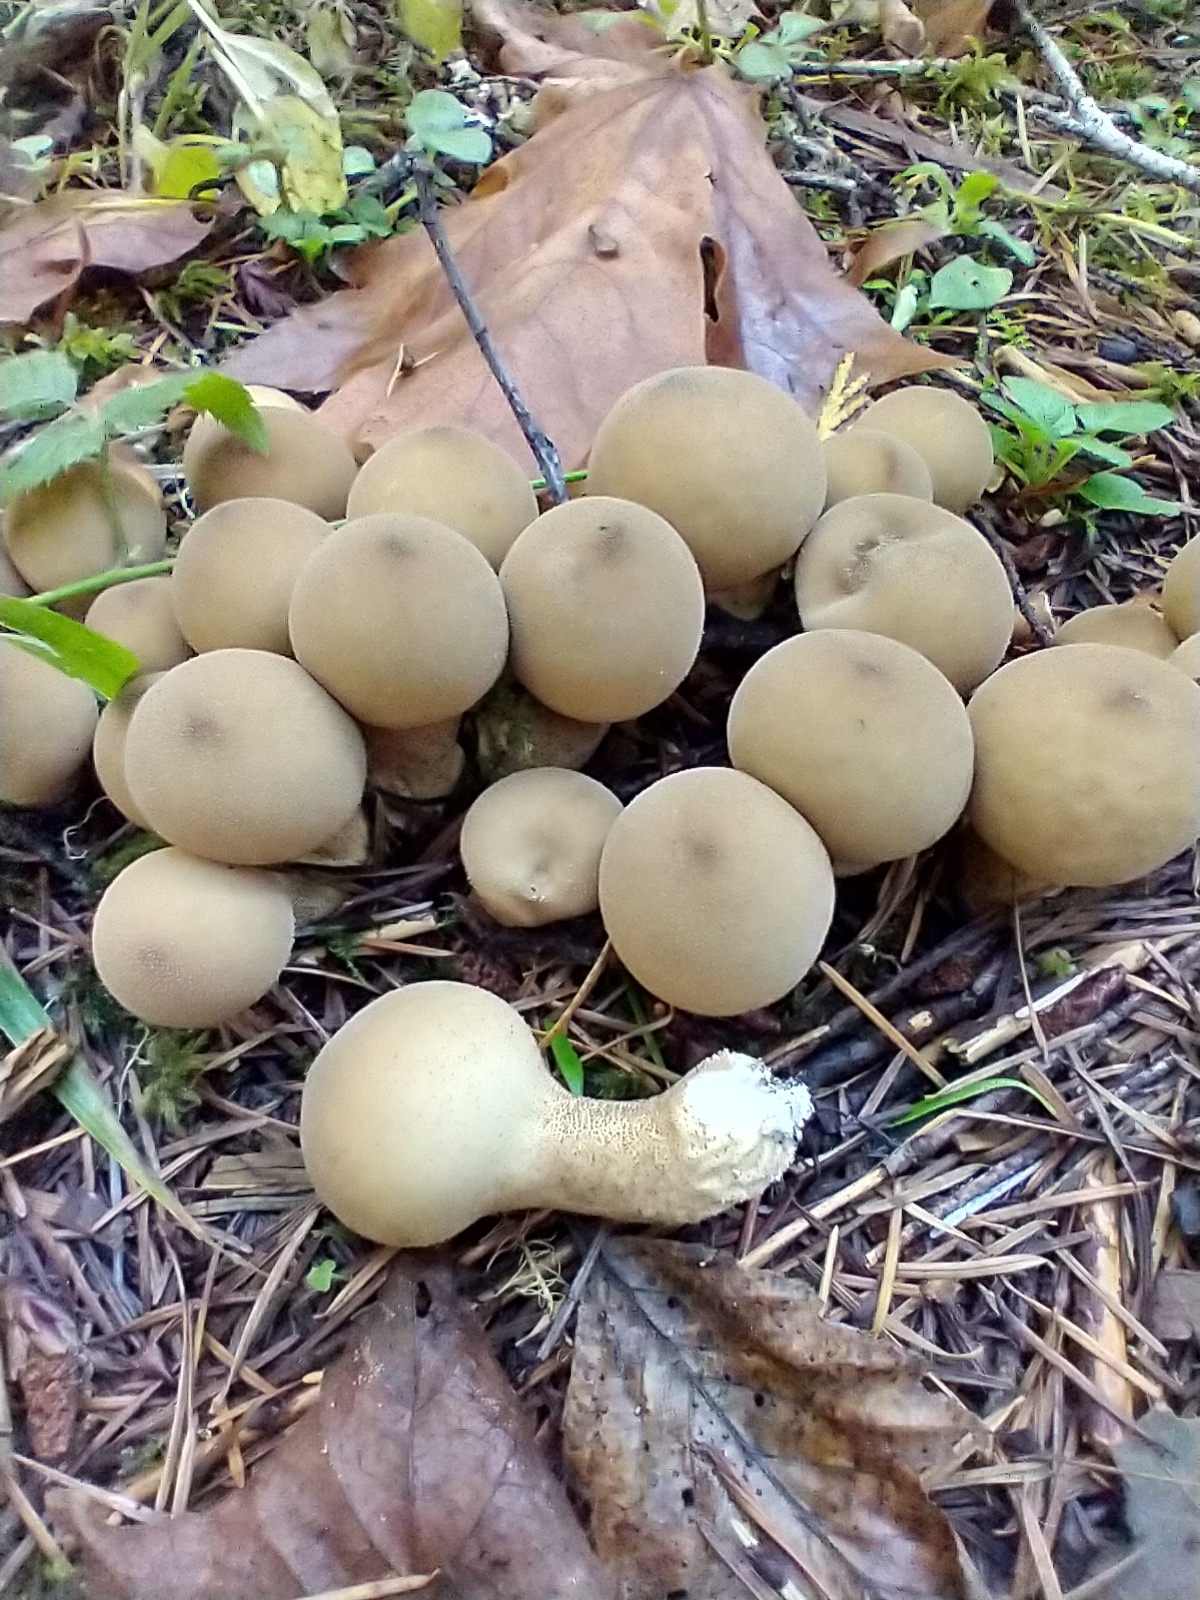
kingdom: Fungi
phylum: Basidiomycota
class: Agaricomycetes
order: Agaricales
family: Lycoperdaceae
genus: Apioperdon
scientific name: Apioperdon pyriforme
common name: Pear-shaped puffball
